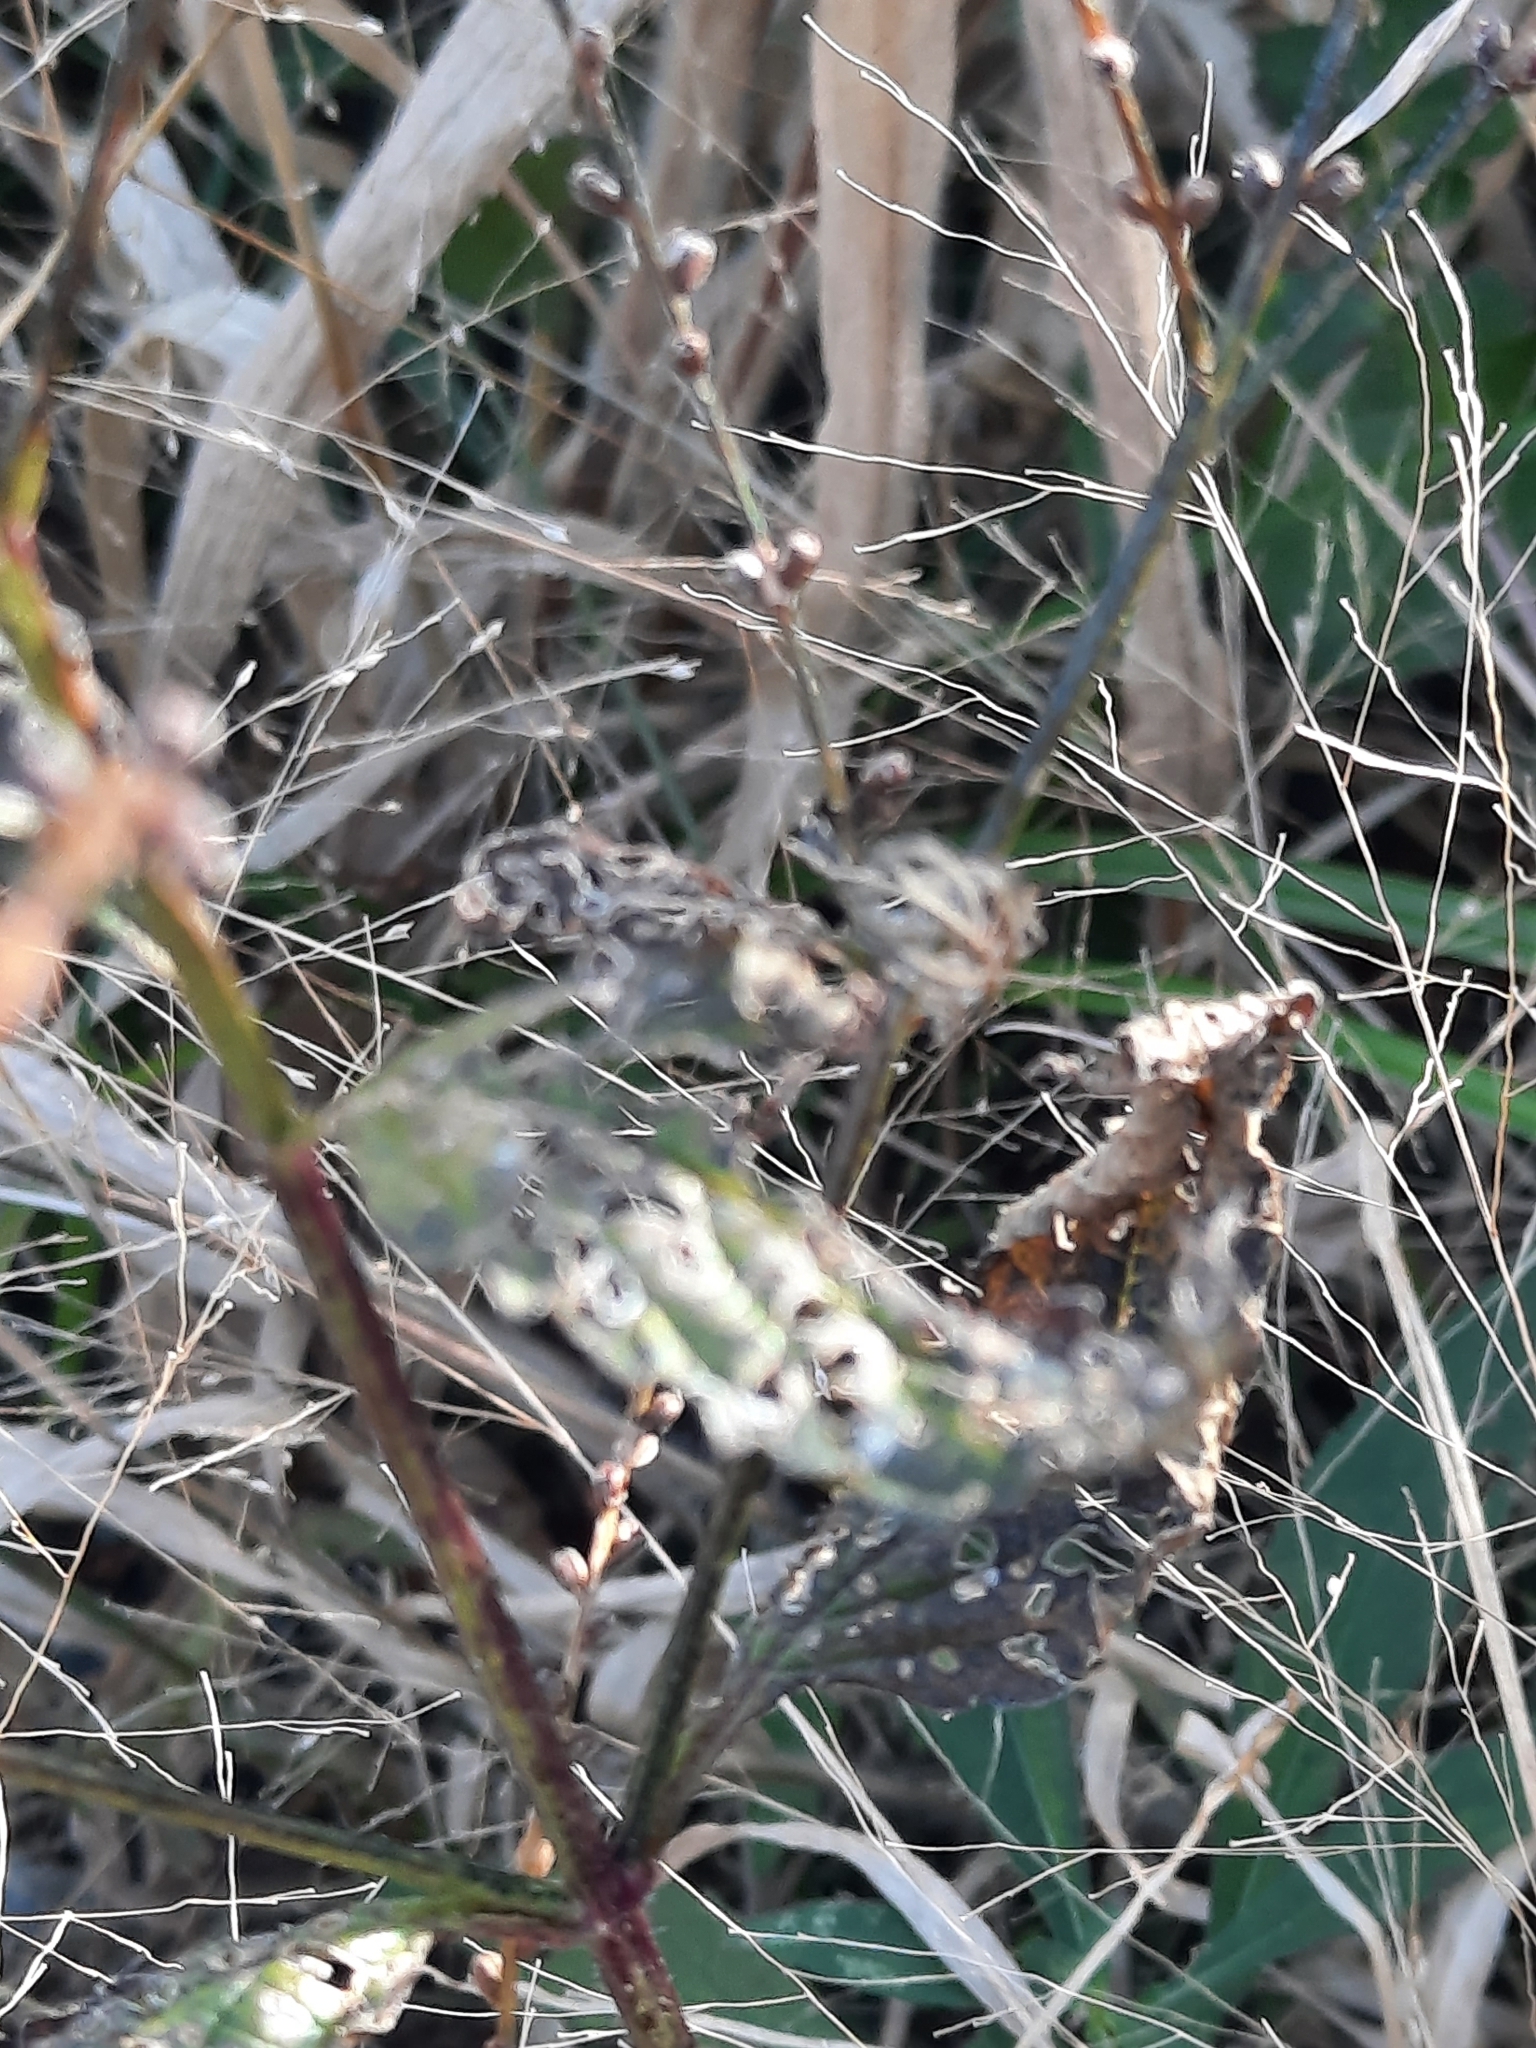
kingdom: Plantae
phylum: Tracheophyta
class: Magnoliopsida
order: Lamiales
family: Verbenaceae
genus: Verbena
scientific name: Verbena urticifolia
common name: Nettle-leaved vervain
